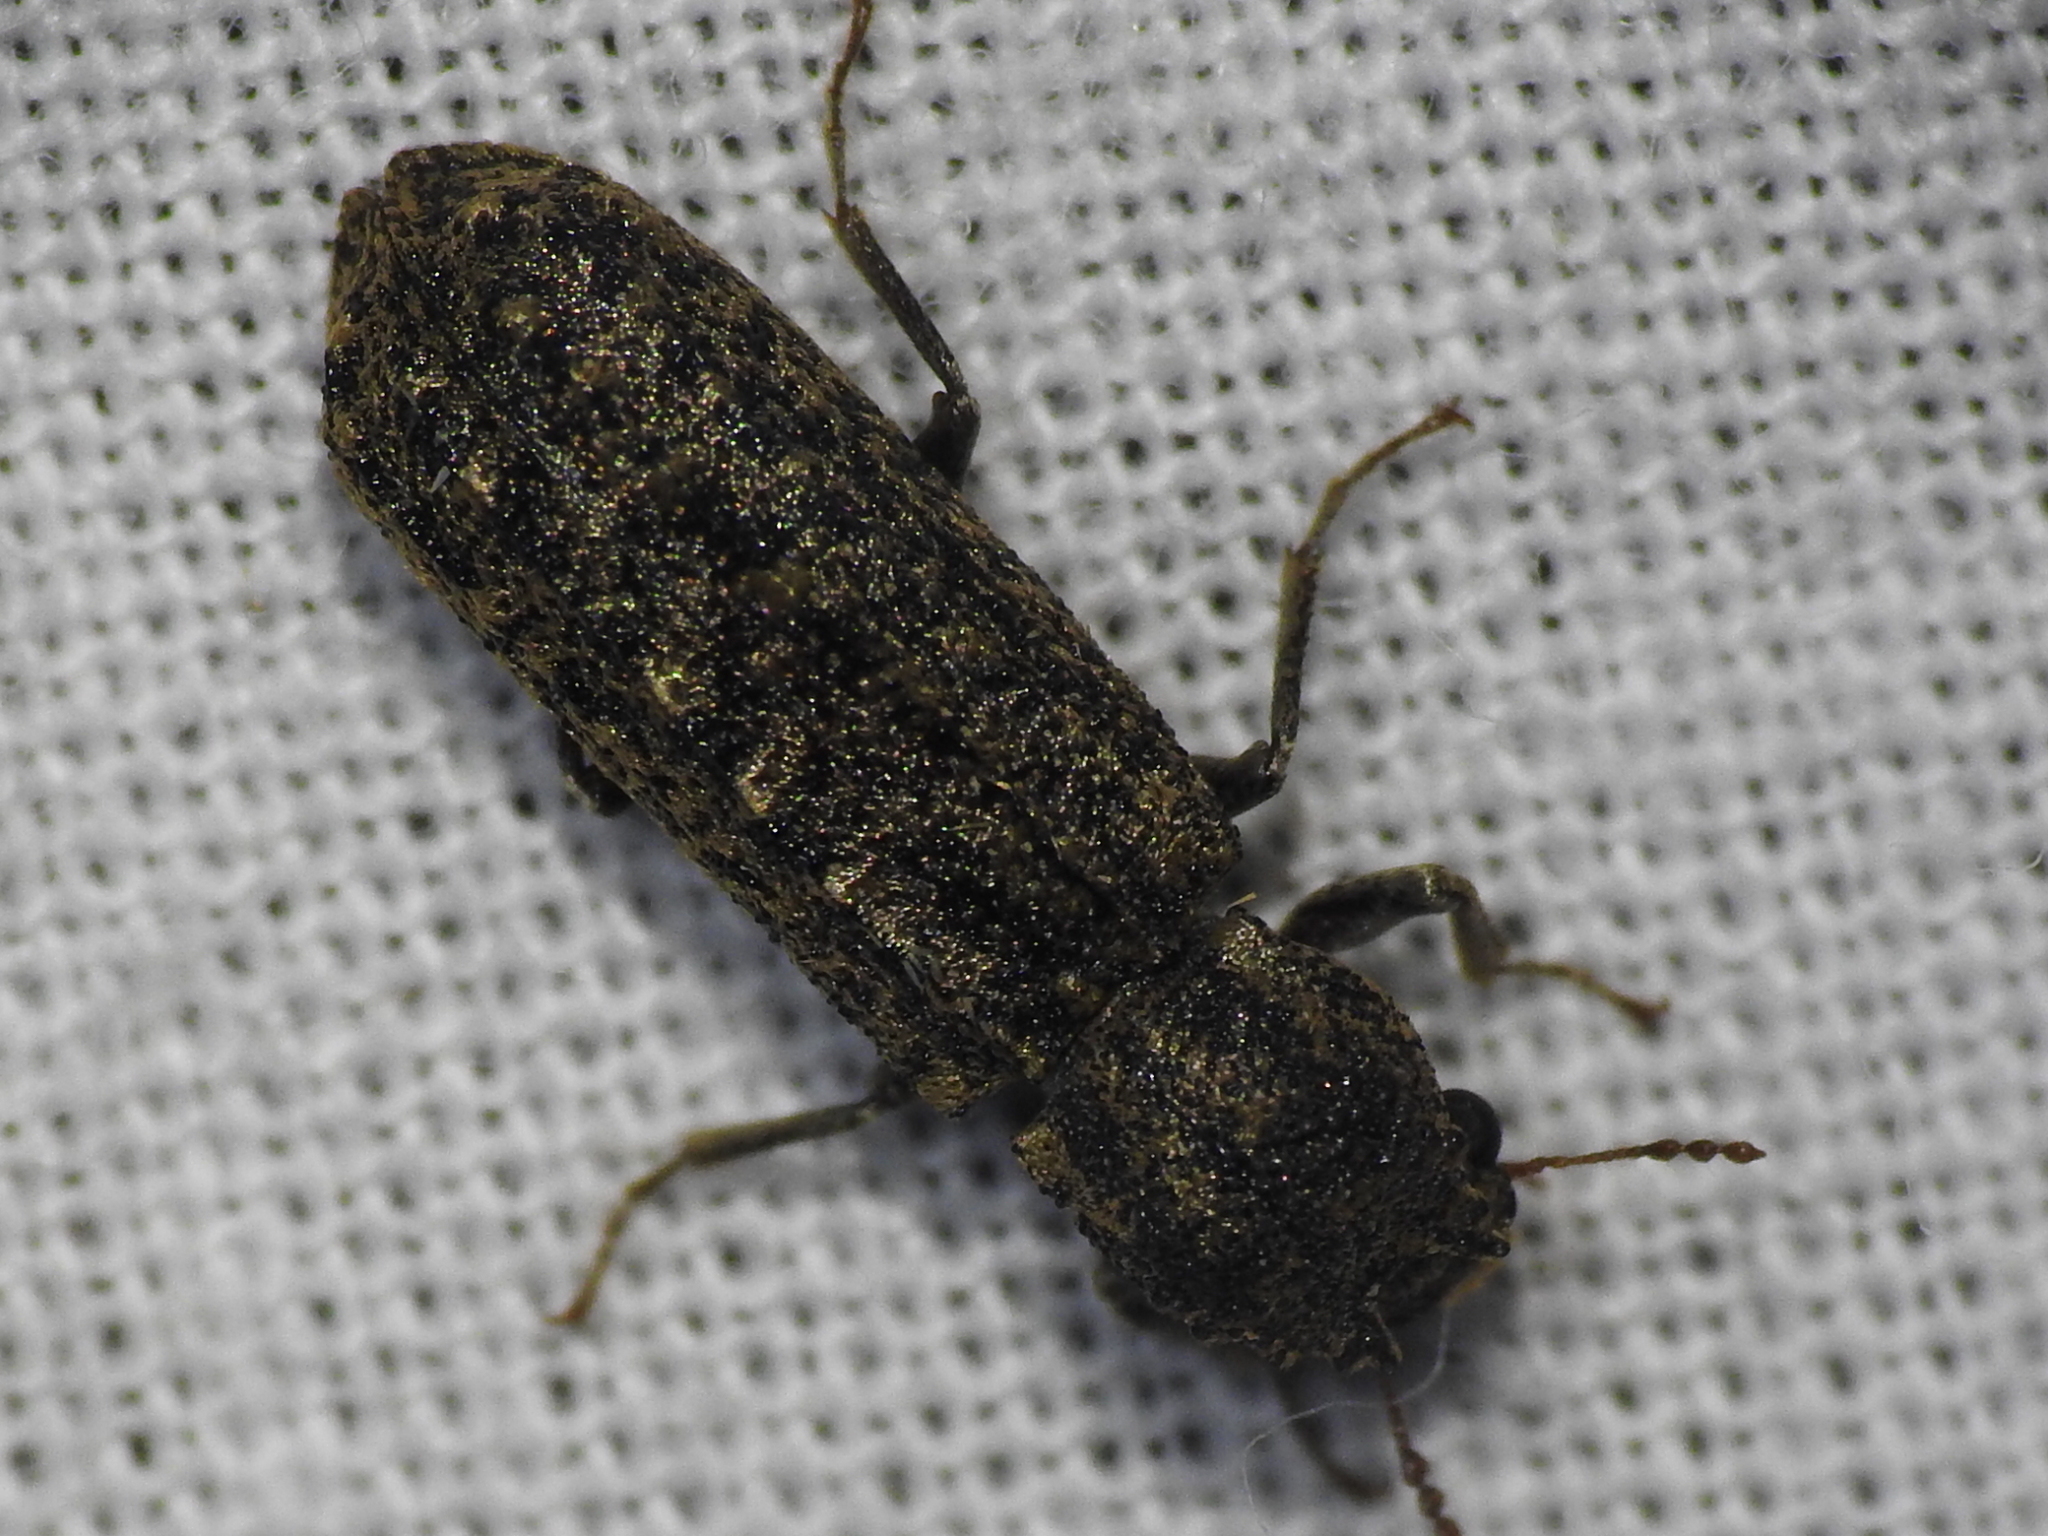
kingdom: Animalia
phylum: Arthropoda
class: Insecta
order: Coleoptera
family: Bostrichidae
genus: Lichenophanes
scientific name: Lichenophanes bicornis
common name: Two-horned powder-post beetle
